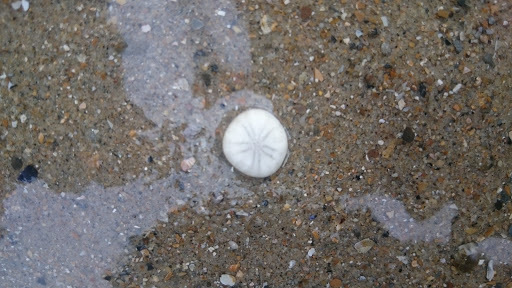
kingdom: Animalia
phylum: Echinodermata
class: Echinoidea
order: Echinolampadacea
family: Fibulariidae
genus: Echinocyamus
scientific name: Echinocyamus pusillus
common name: Broad beau of sea
